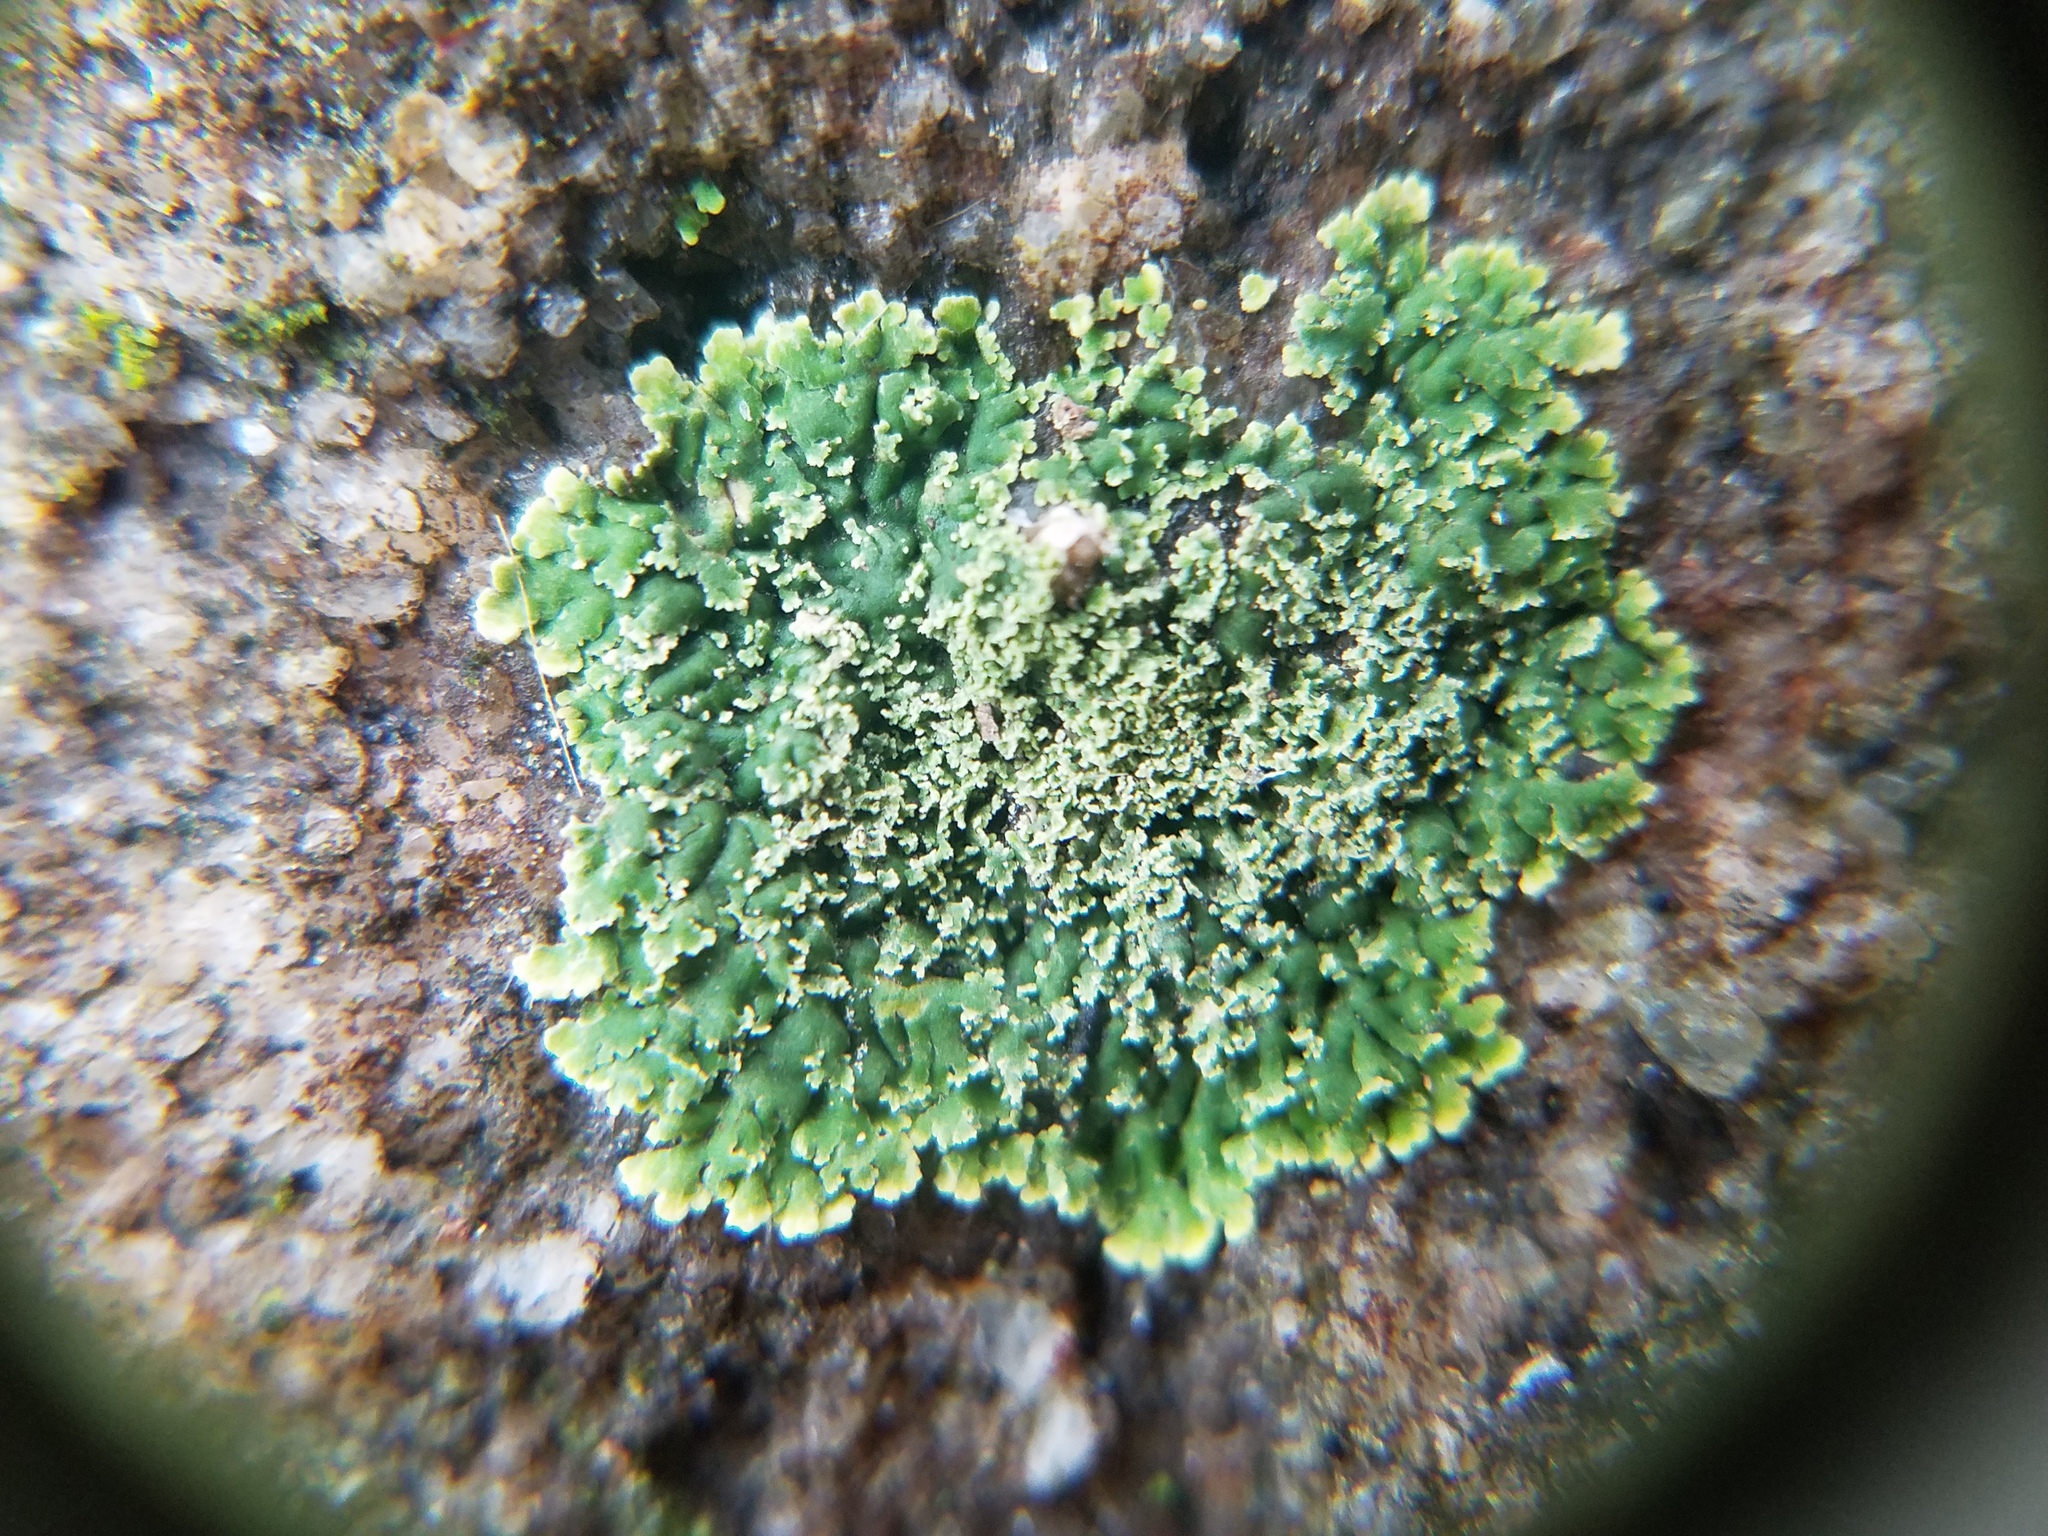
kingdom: Fungi
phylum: Ascomycota
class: Lecanoromycetes
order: Lecanorales
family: Ramalinaceae
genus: Phyllopsora
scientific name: Phyllopsora parvifolia
